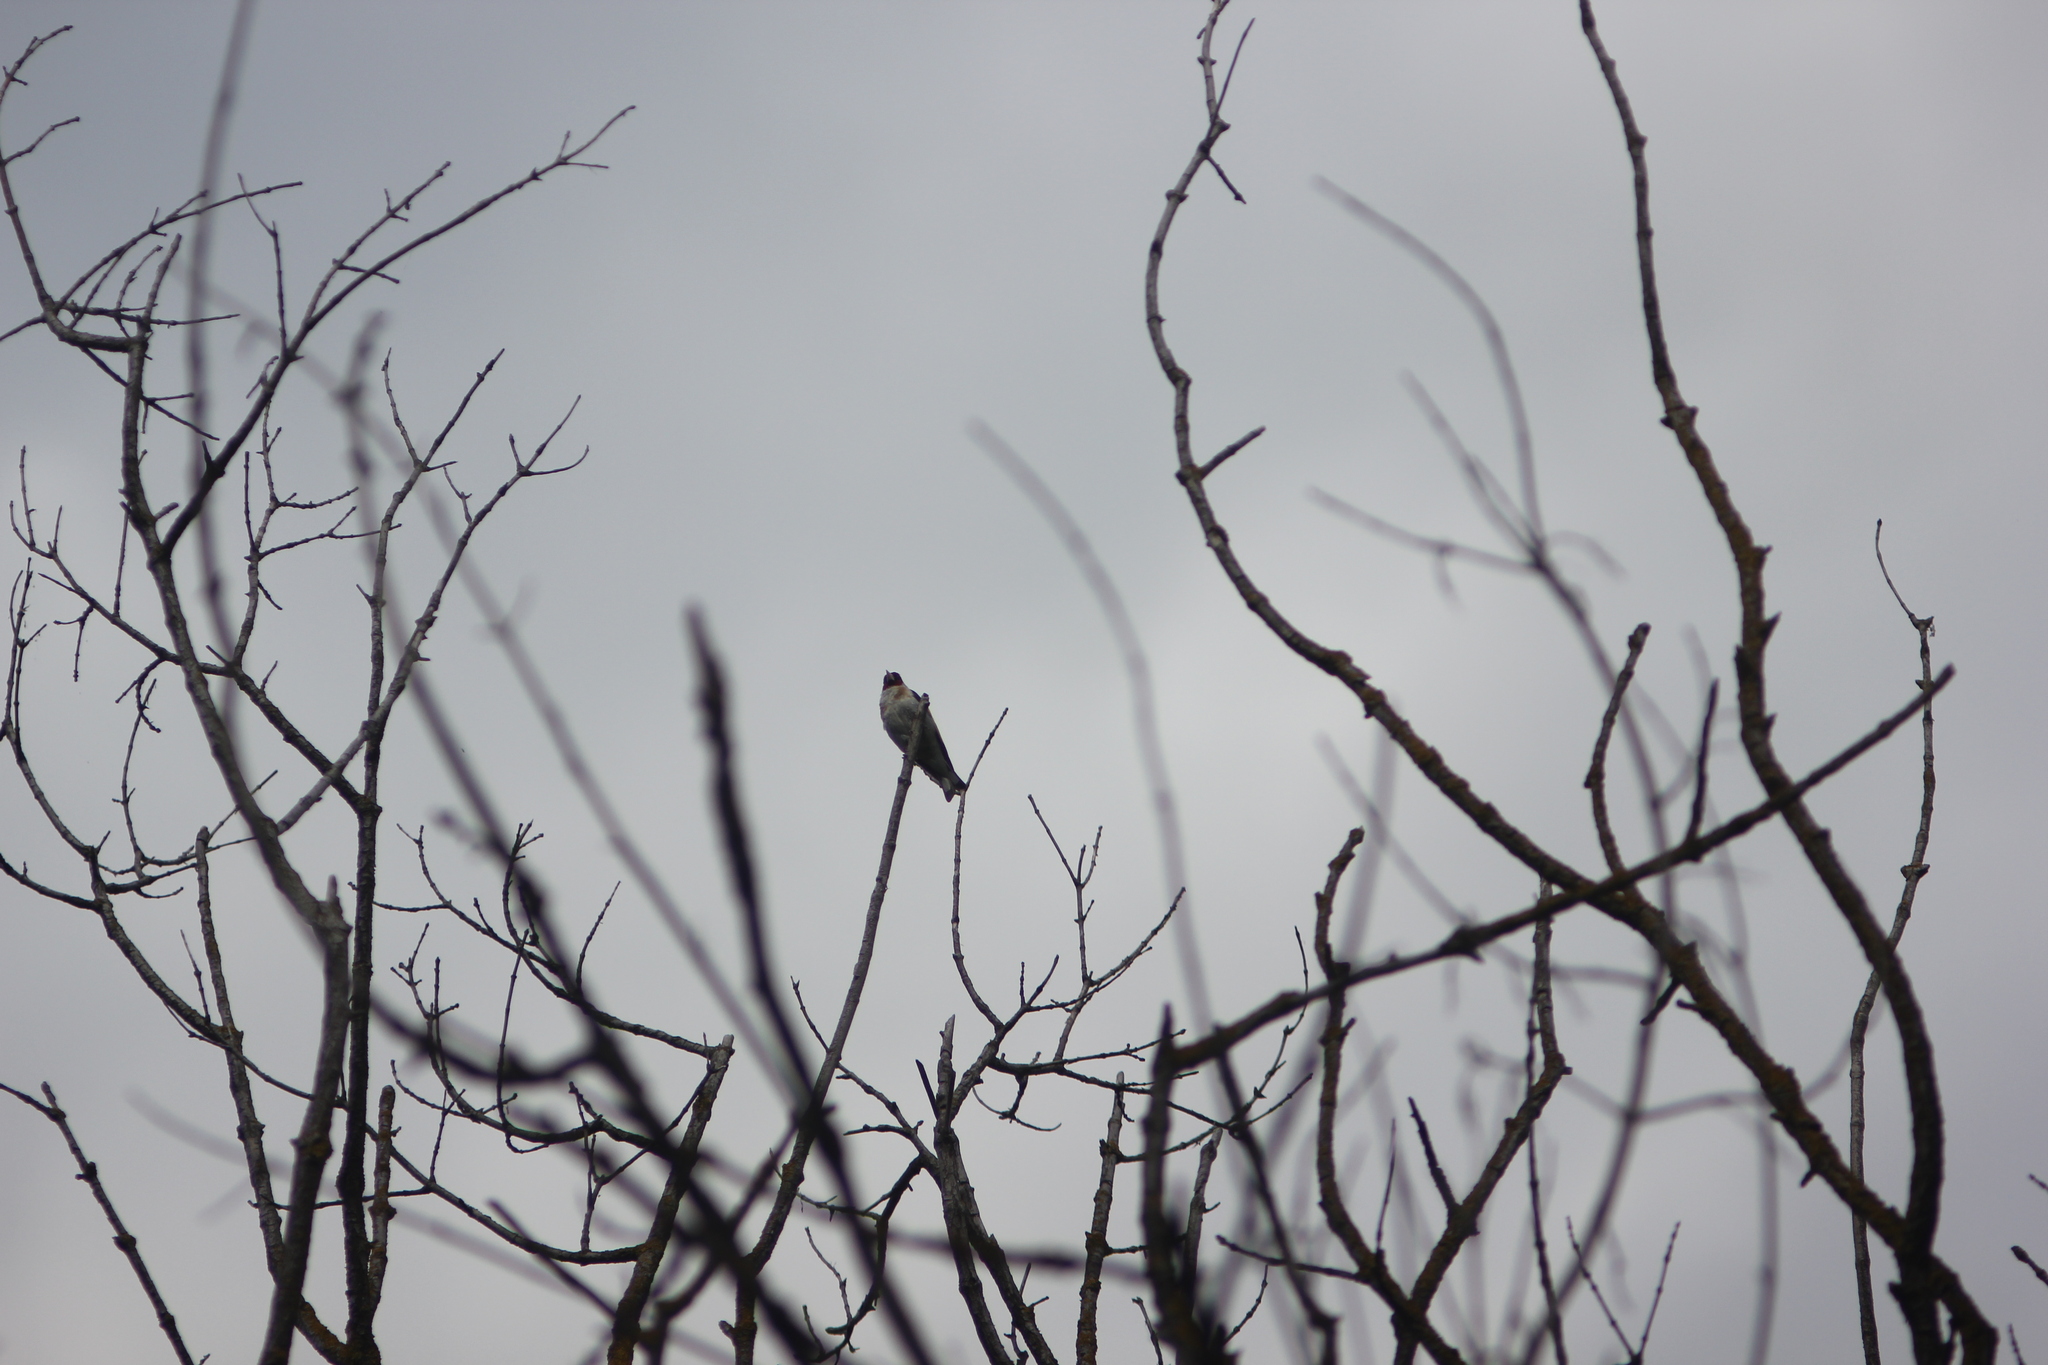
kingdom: Animalia
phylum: Chordata
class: Aves
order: Passeriformes
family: Fringillidae
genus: Carduelis
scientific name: Carduelis carduelis
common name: European goldfinch
